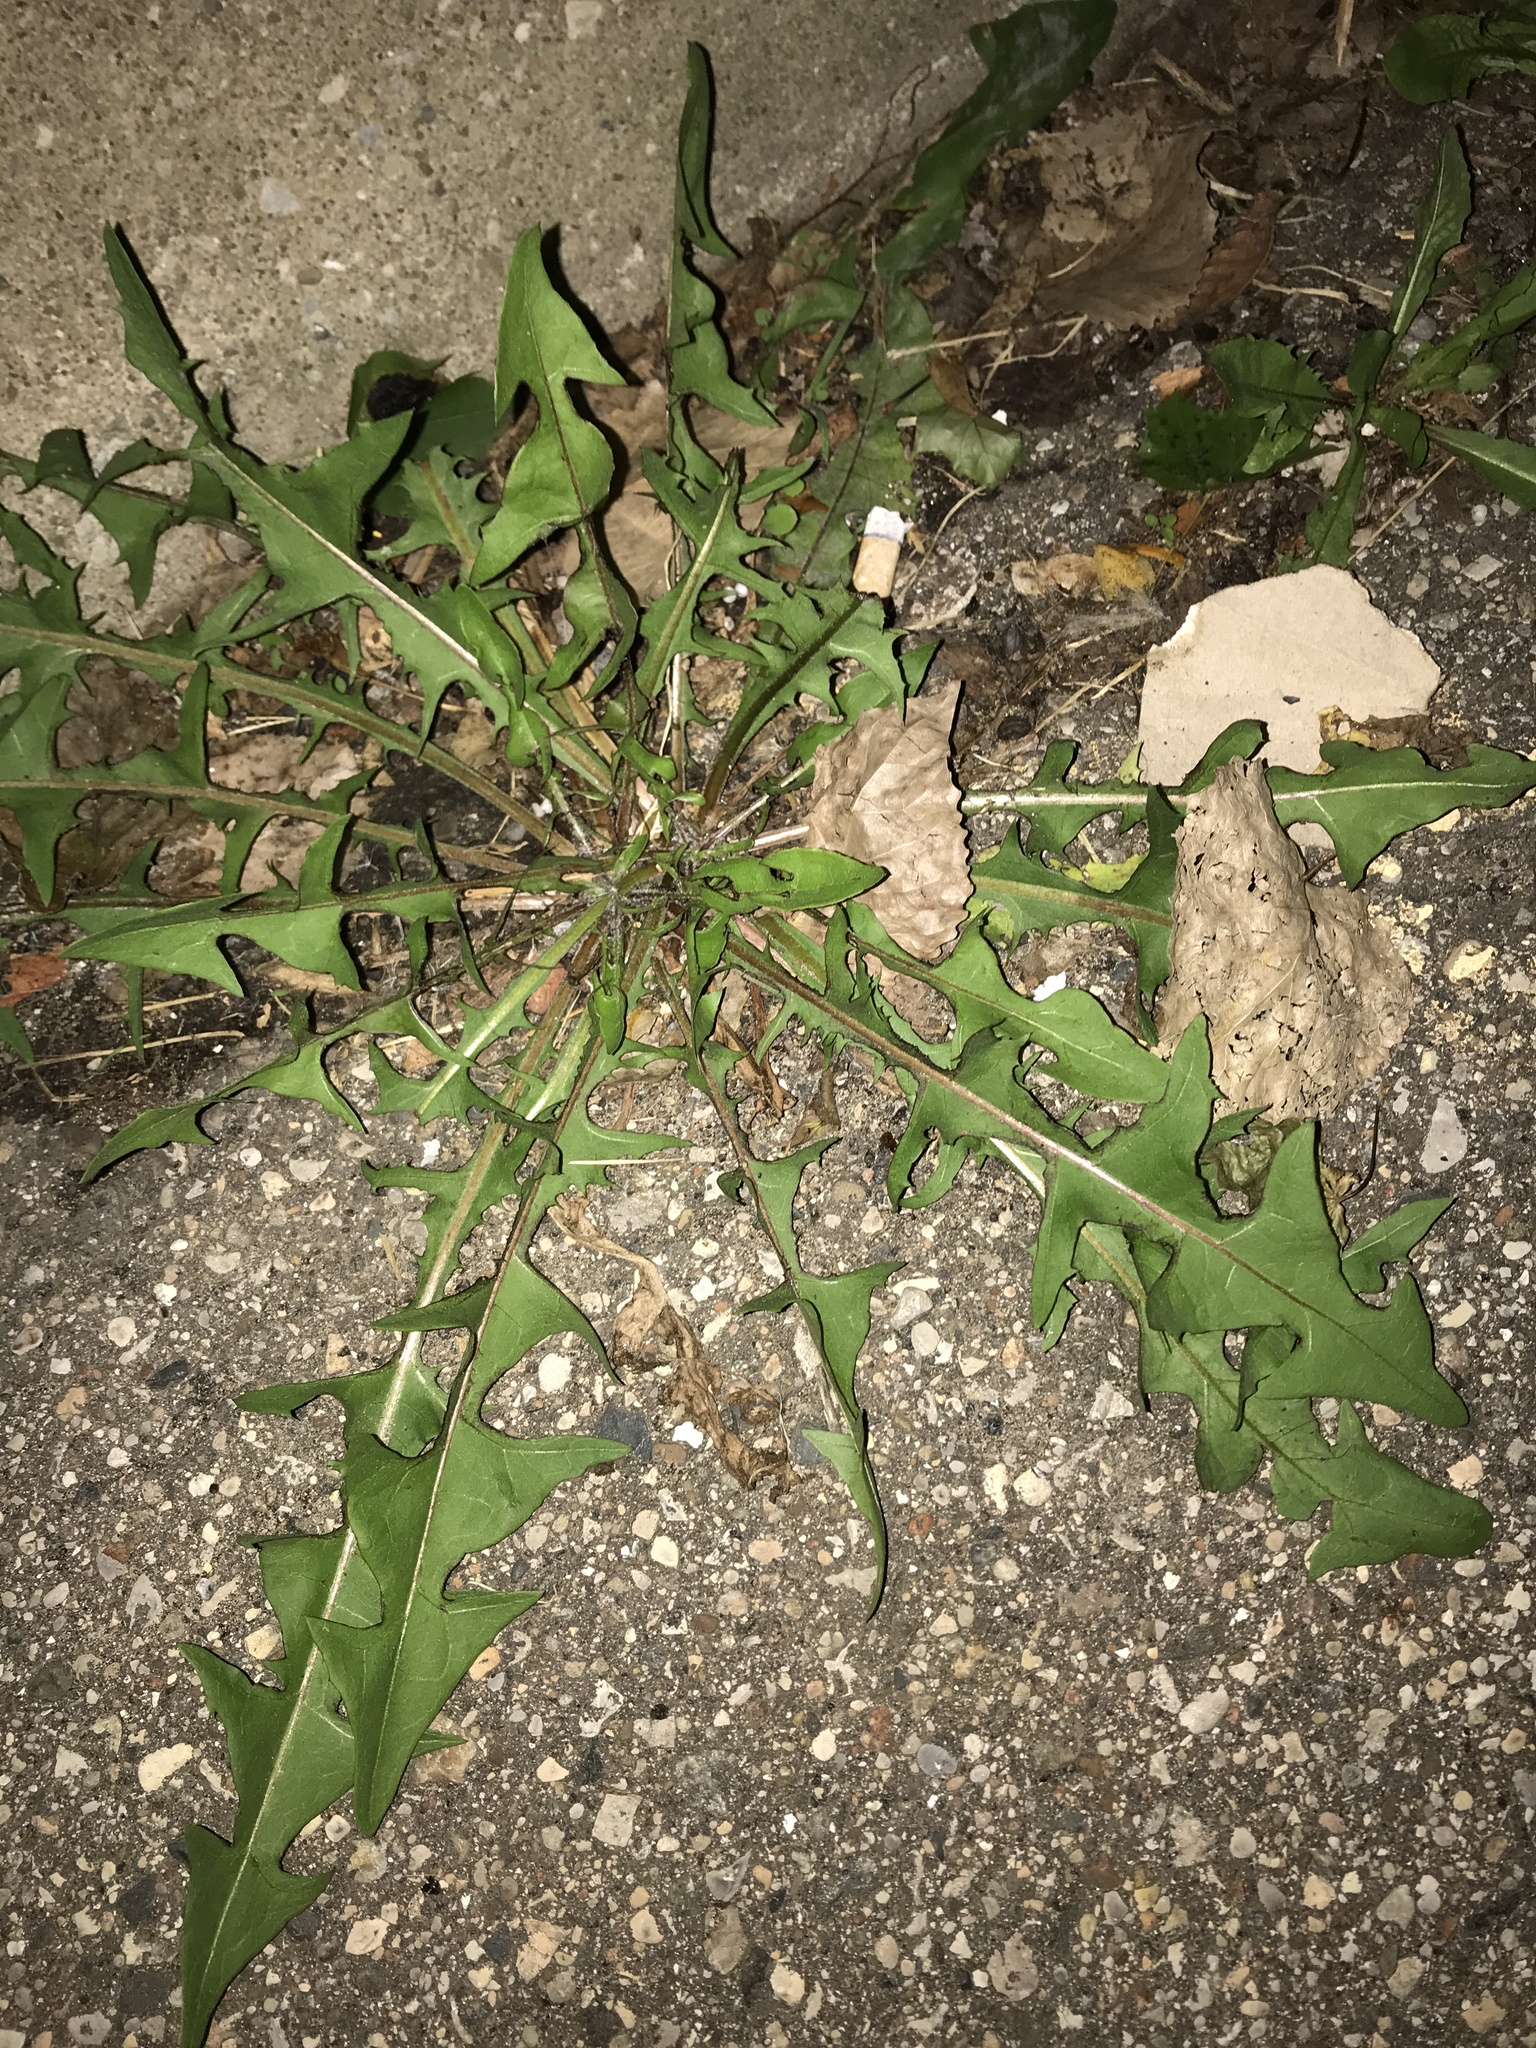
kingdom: Plantae
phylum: Tracheophyta
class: Magnoliopsida
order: Asterales
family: Asteraceae
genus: Taraxacum
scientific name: Taraxacum officinale
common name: Common dandelion
